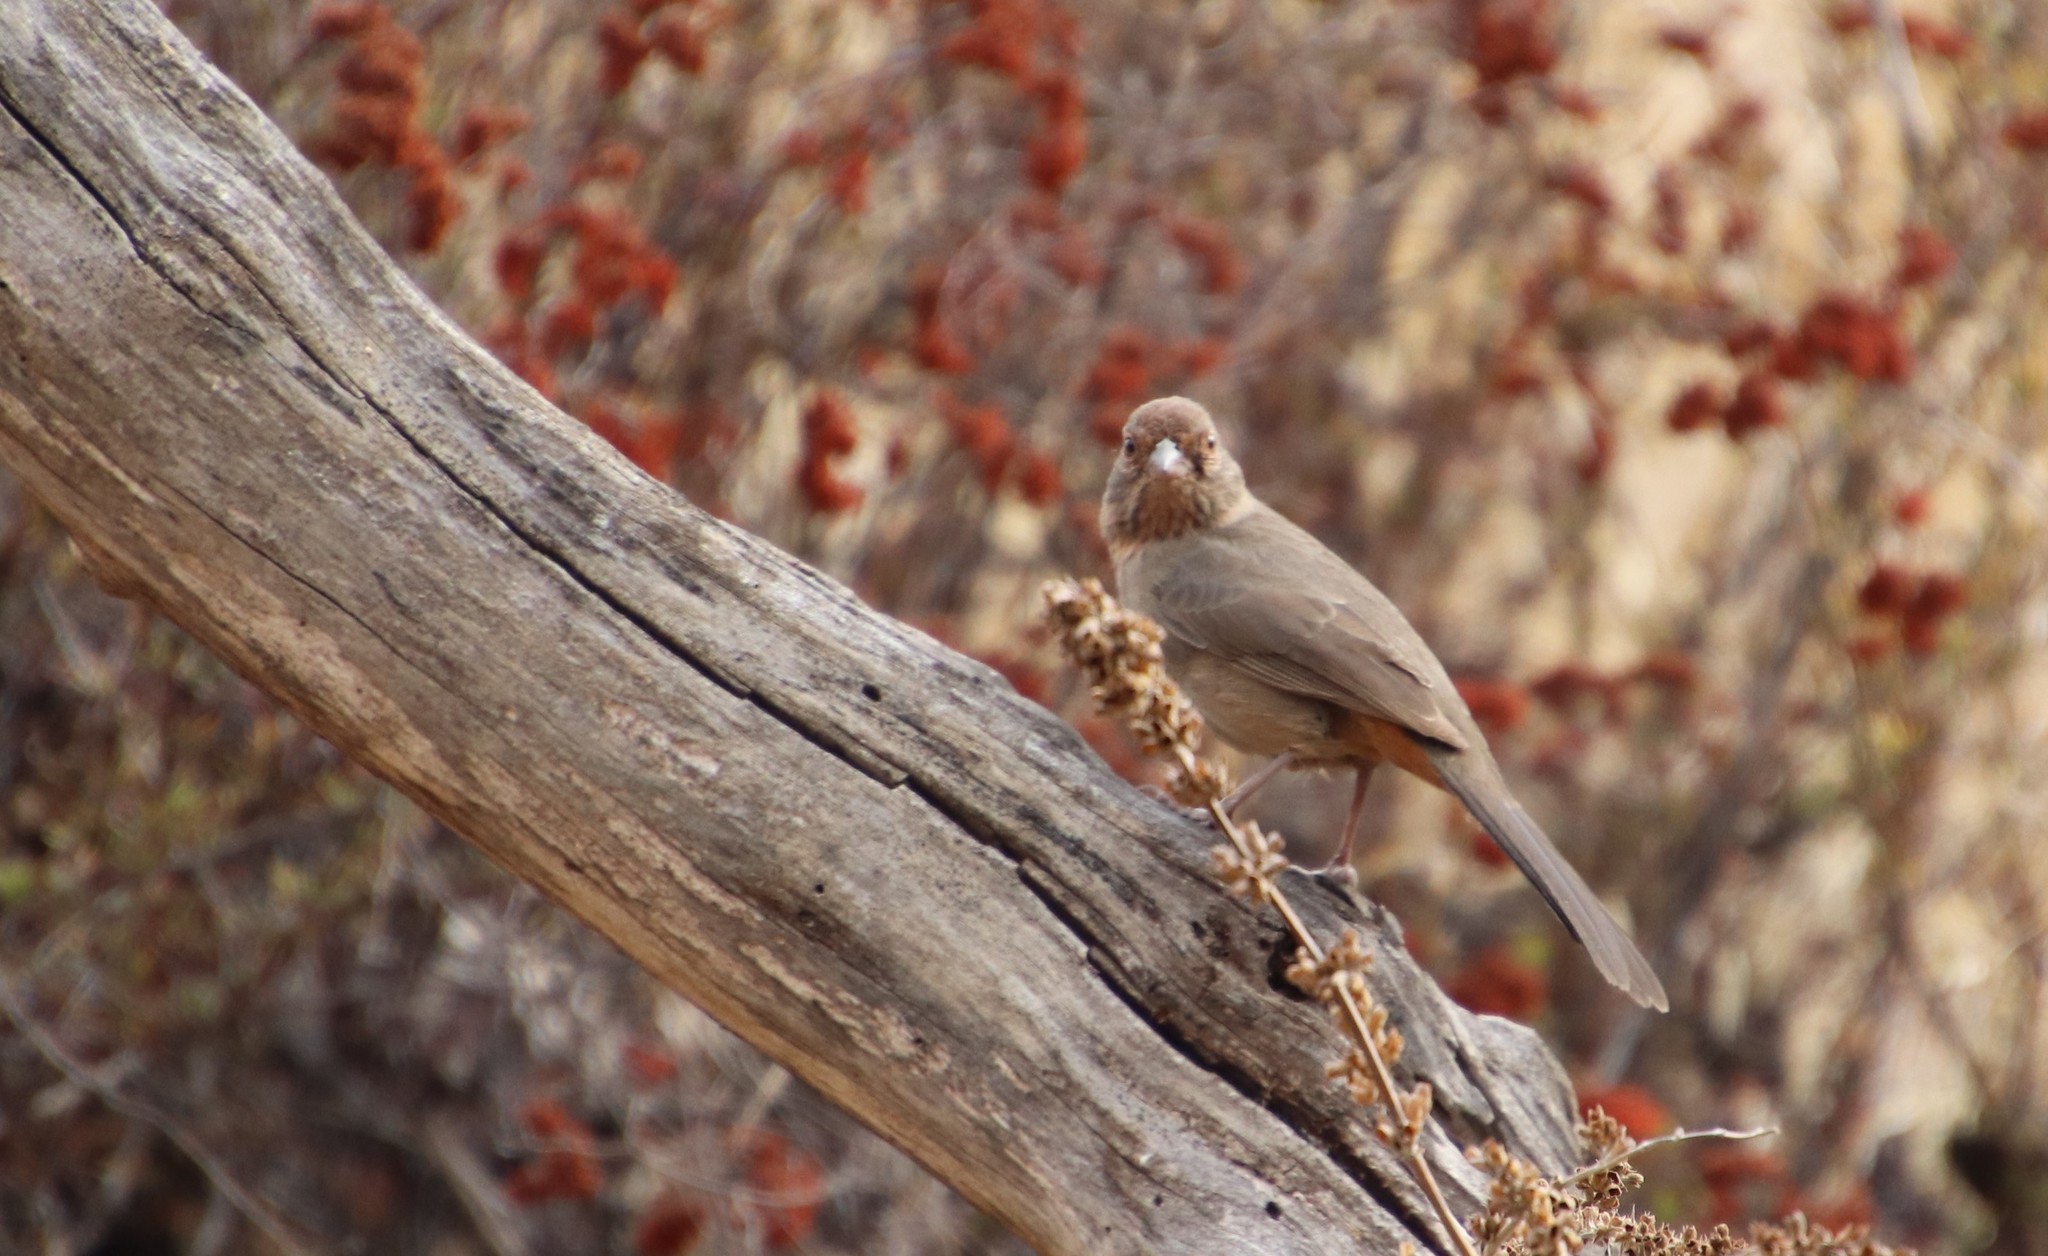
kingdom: Animalia
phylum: Chordata
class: Aves
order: Passeriformes
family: Passerellidae
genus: Melozone
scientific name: Melozone crissalis
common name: California towhee
